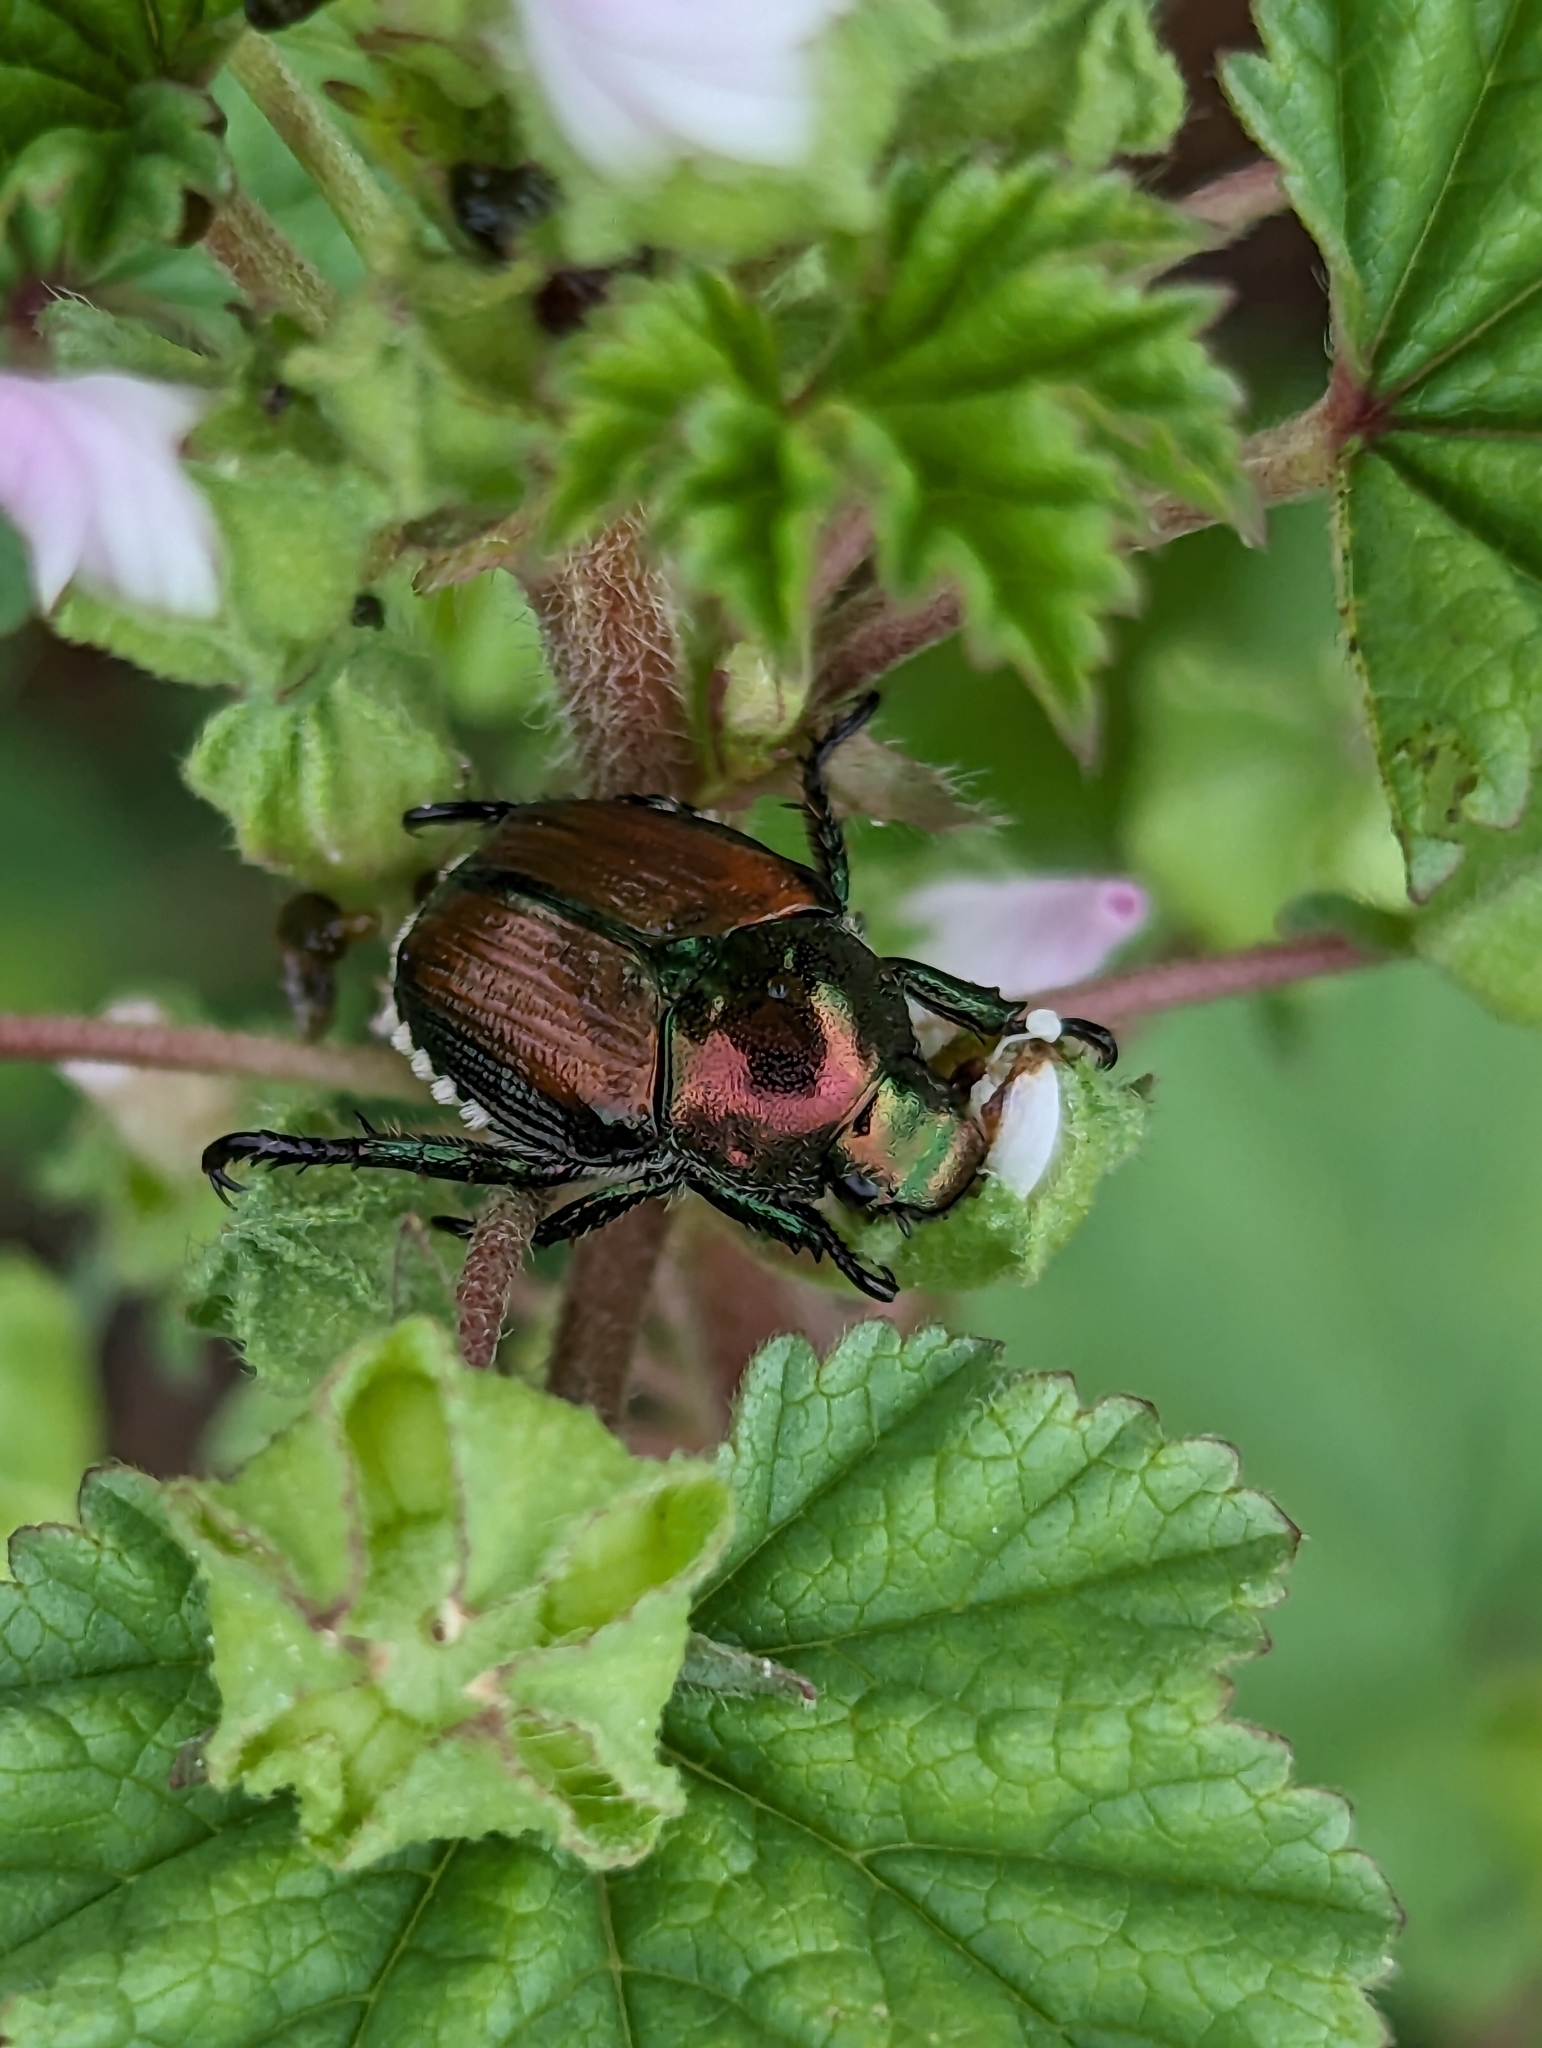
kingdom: Animalia
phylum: Arthropoda
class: Insecta
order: Coleoptera
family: Scarabaeidae
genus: Popillia
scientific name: Popillia japonica
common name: Japanese beetle
